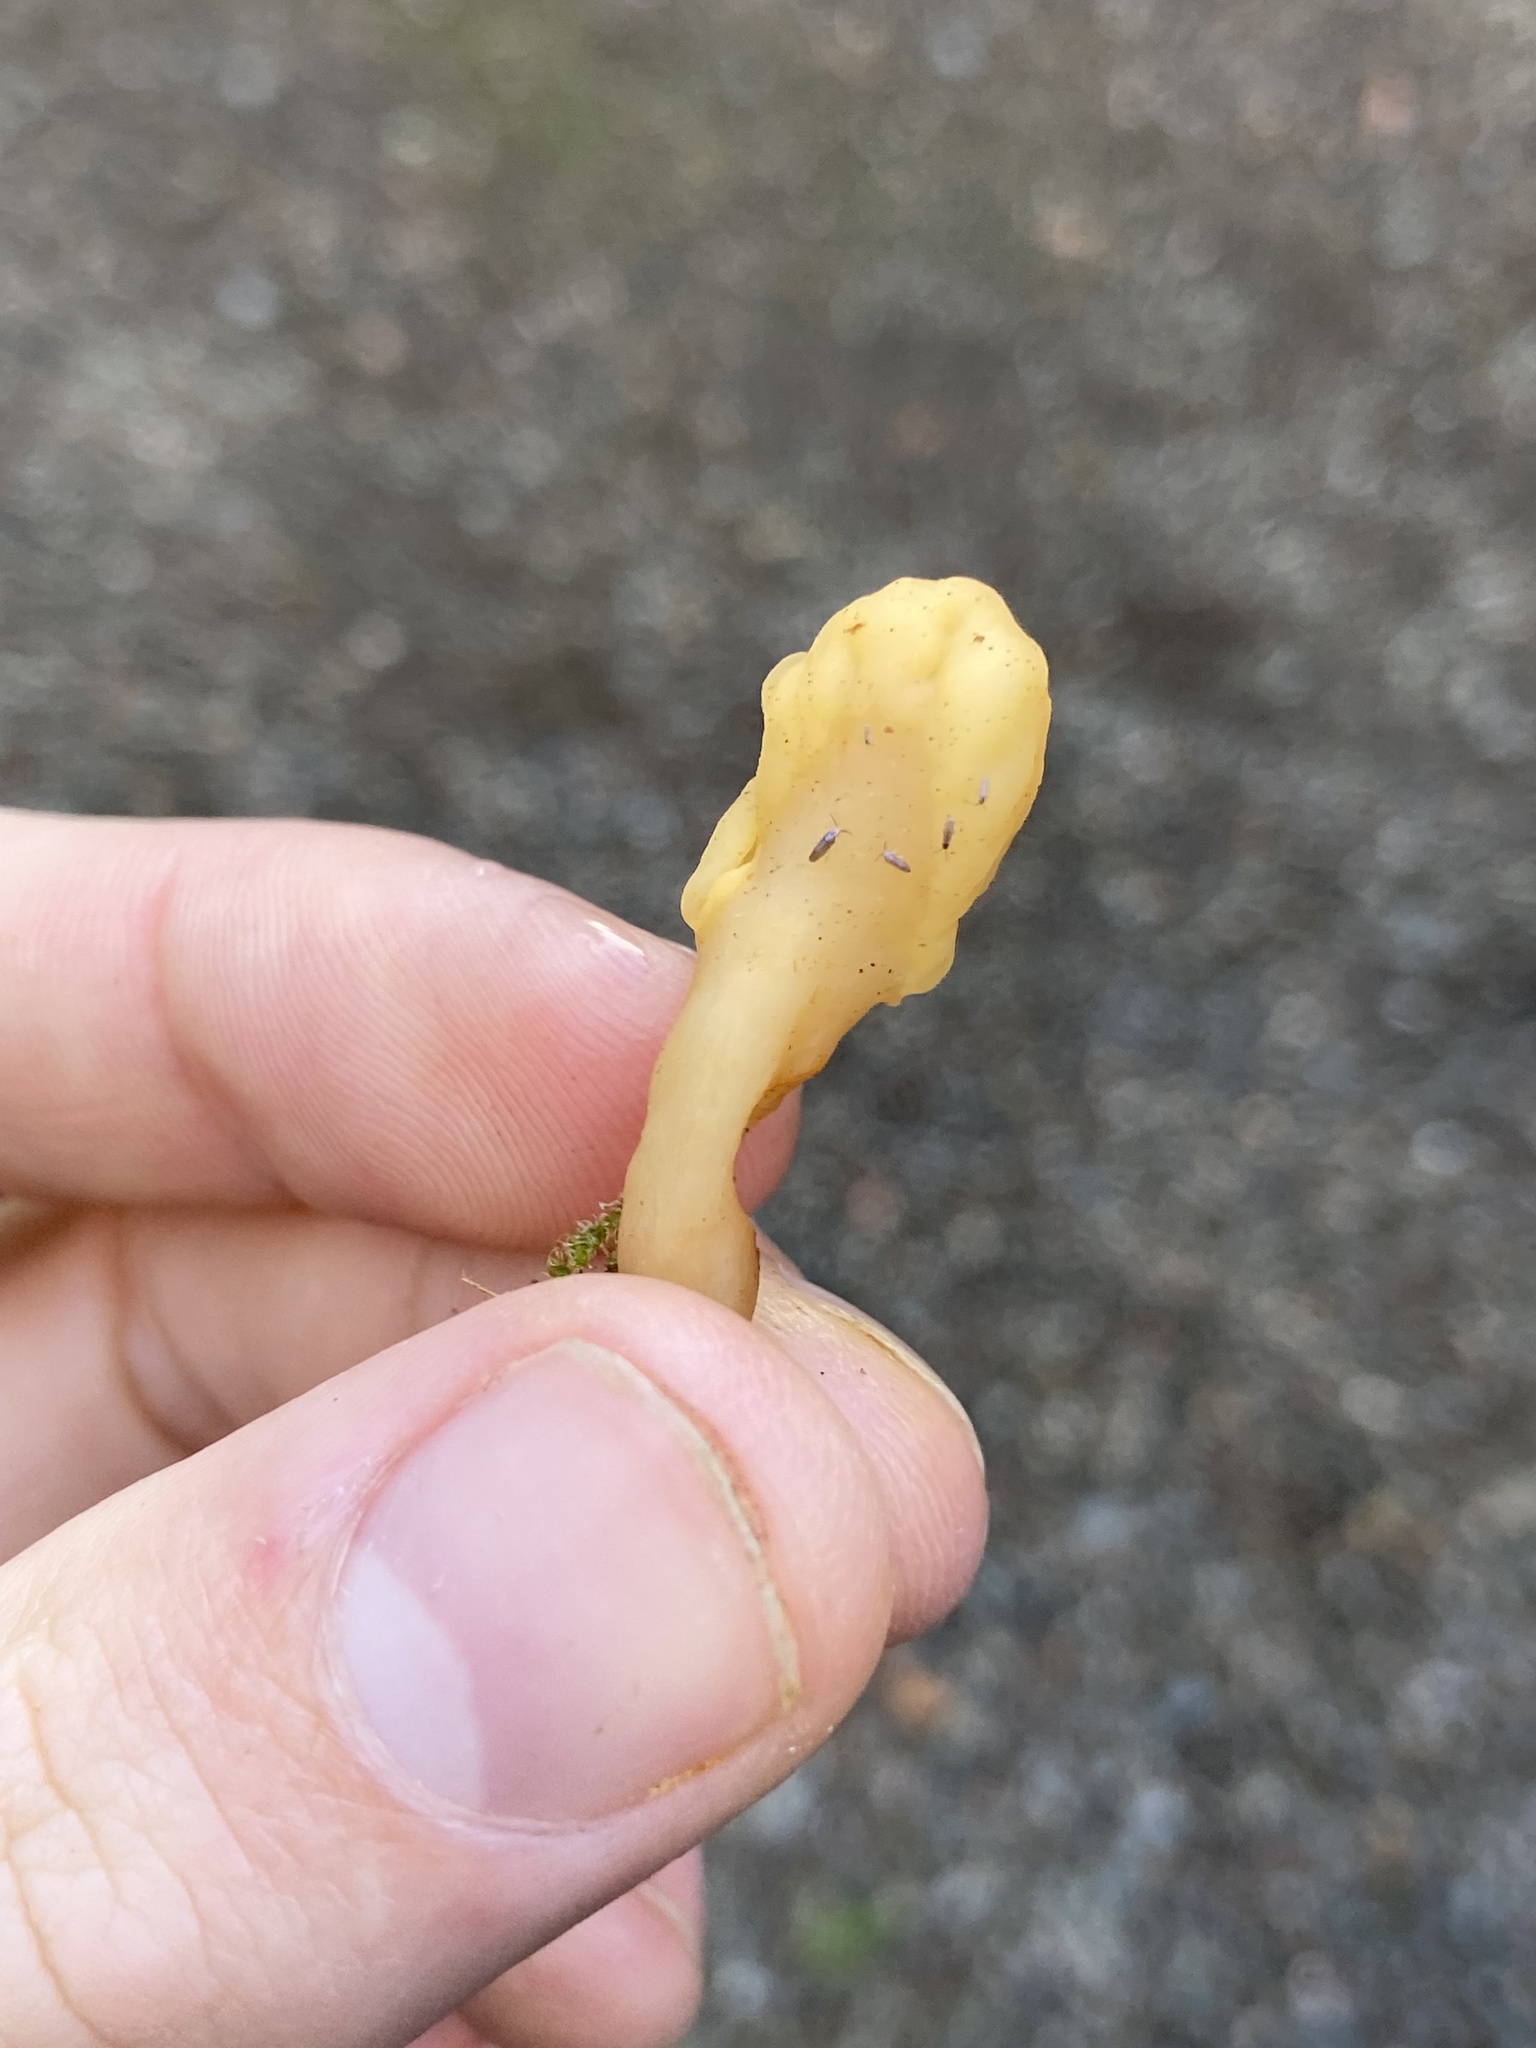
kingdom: Fungi
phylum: Ascomycota
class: Leotiomycetes
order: Rhytismatales
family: Cudoniaceae
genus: Spathularia
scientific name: Spathularia flavida
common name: Yellow fan
